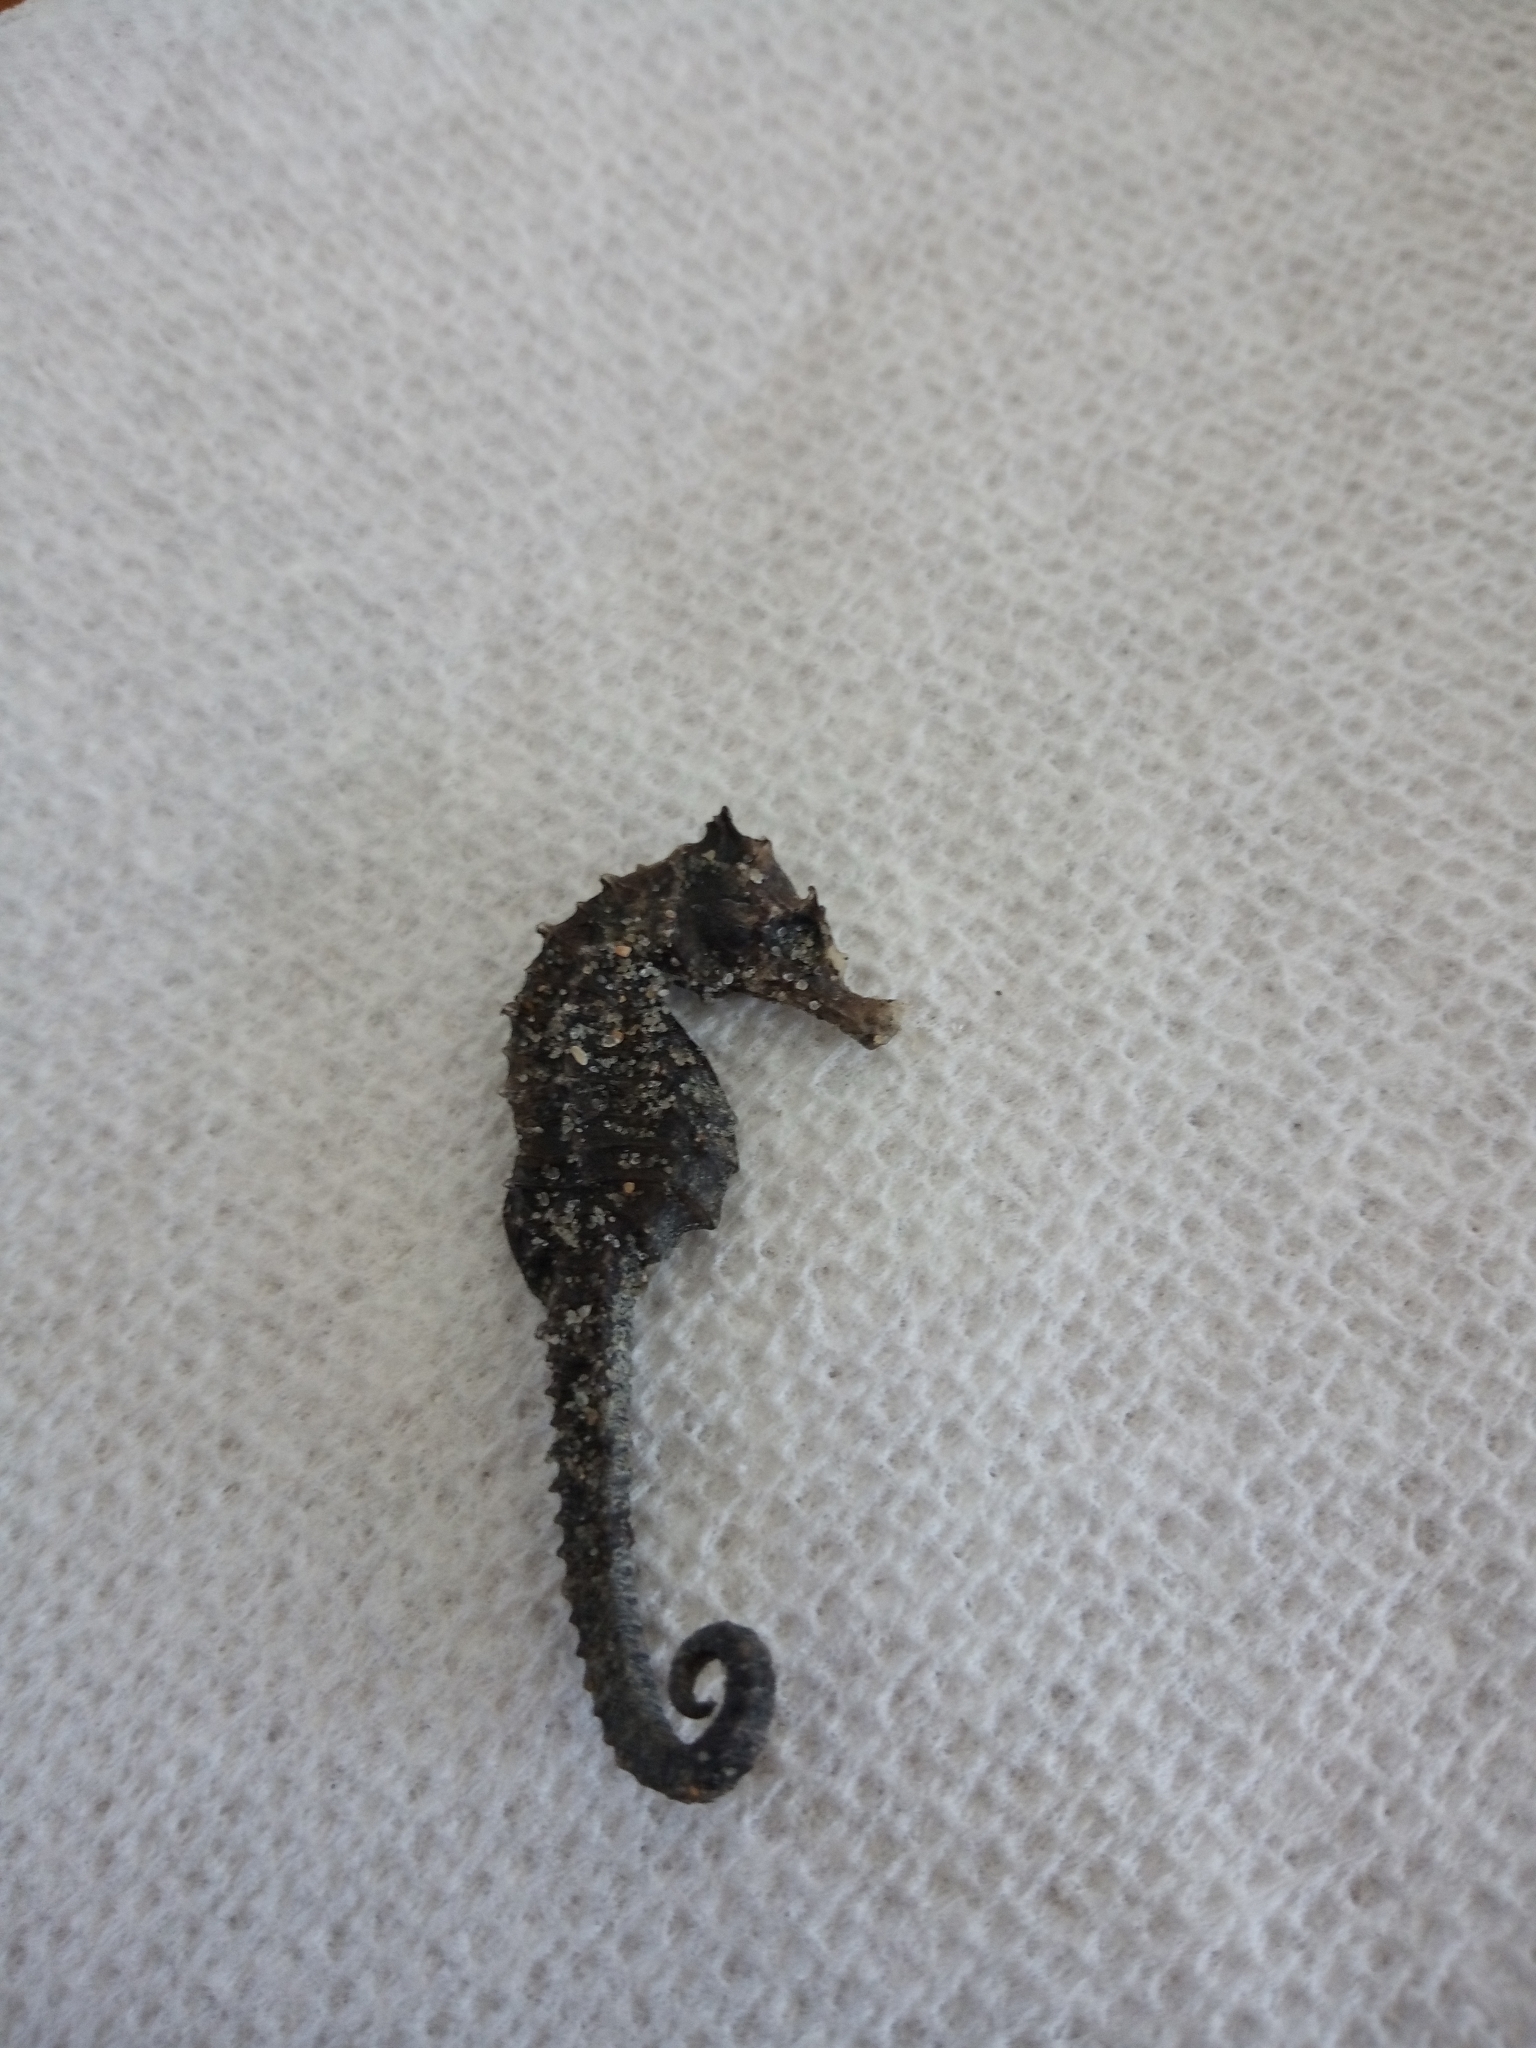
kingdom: Animalia
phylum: Chordata
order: Syngnathiformes
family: Syngnathidae
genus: Hippocampus
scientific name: Hippocampus erectus
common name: Lined seahorse
